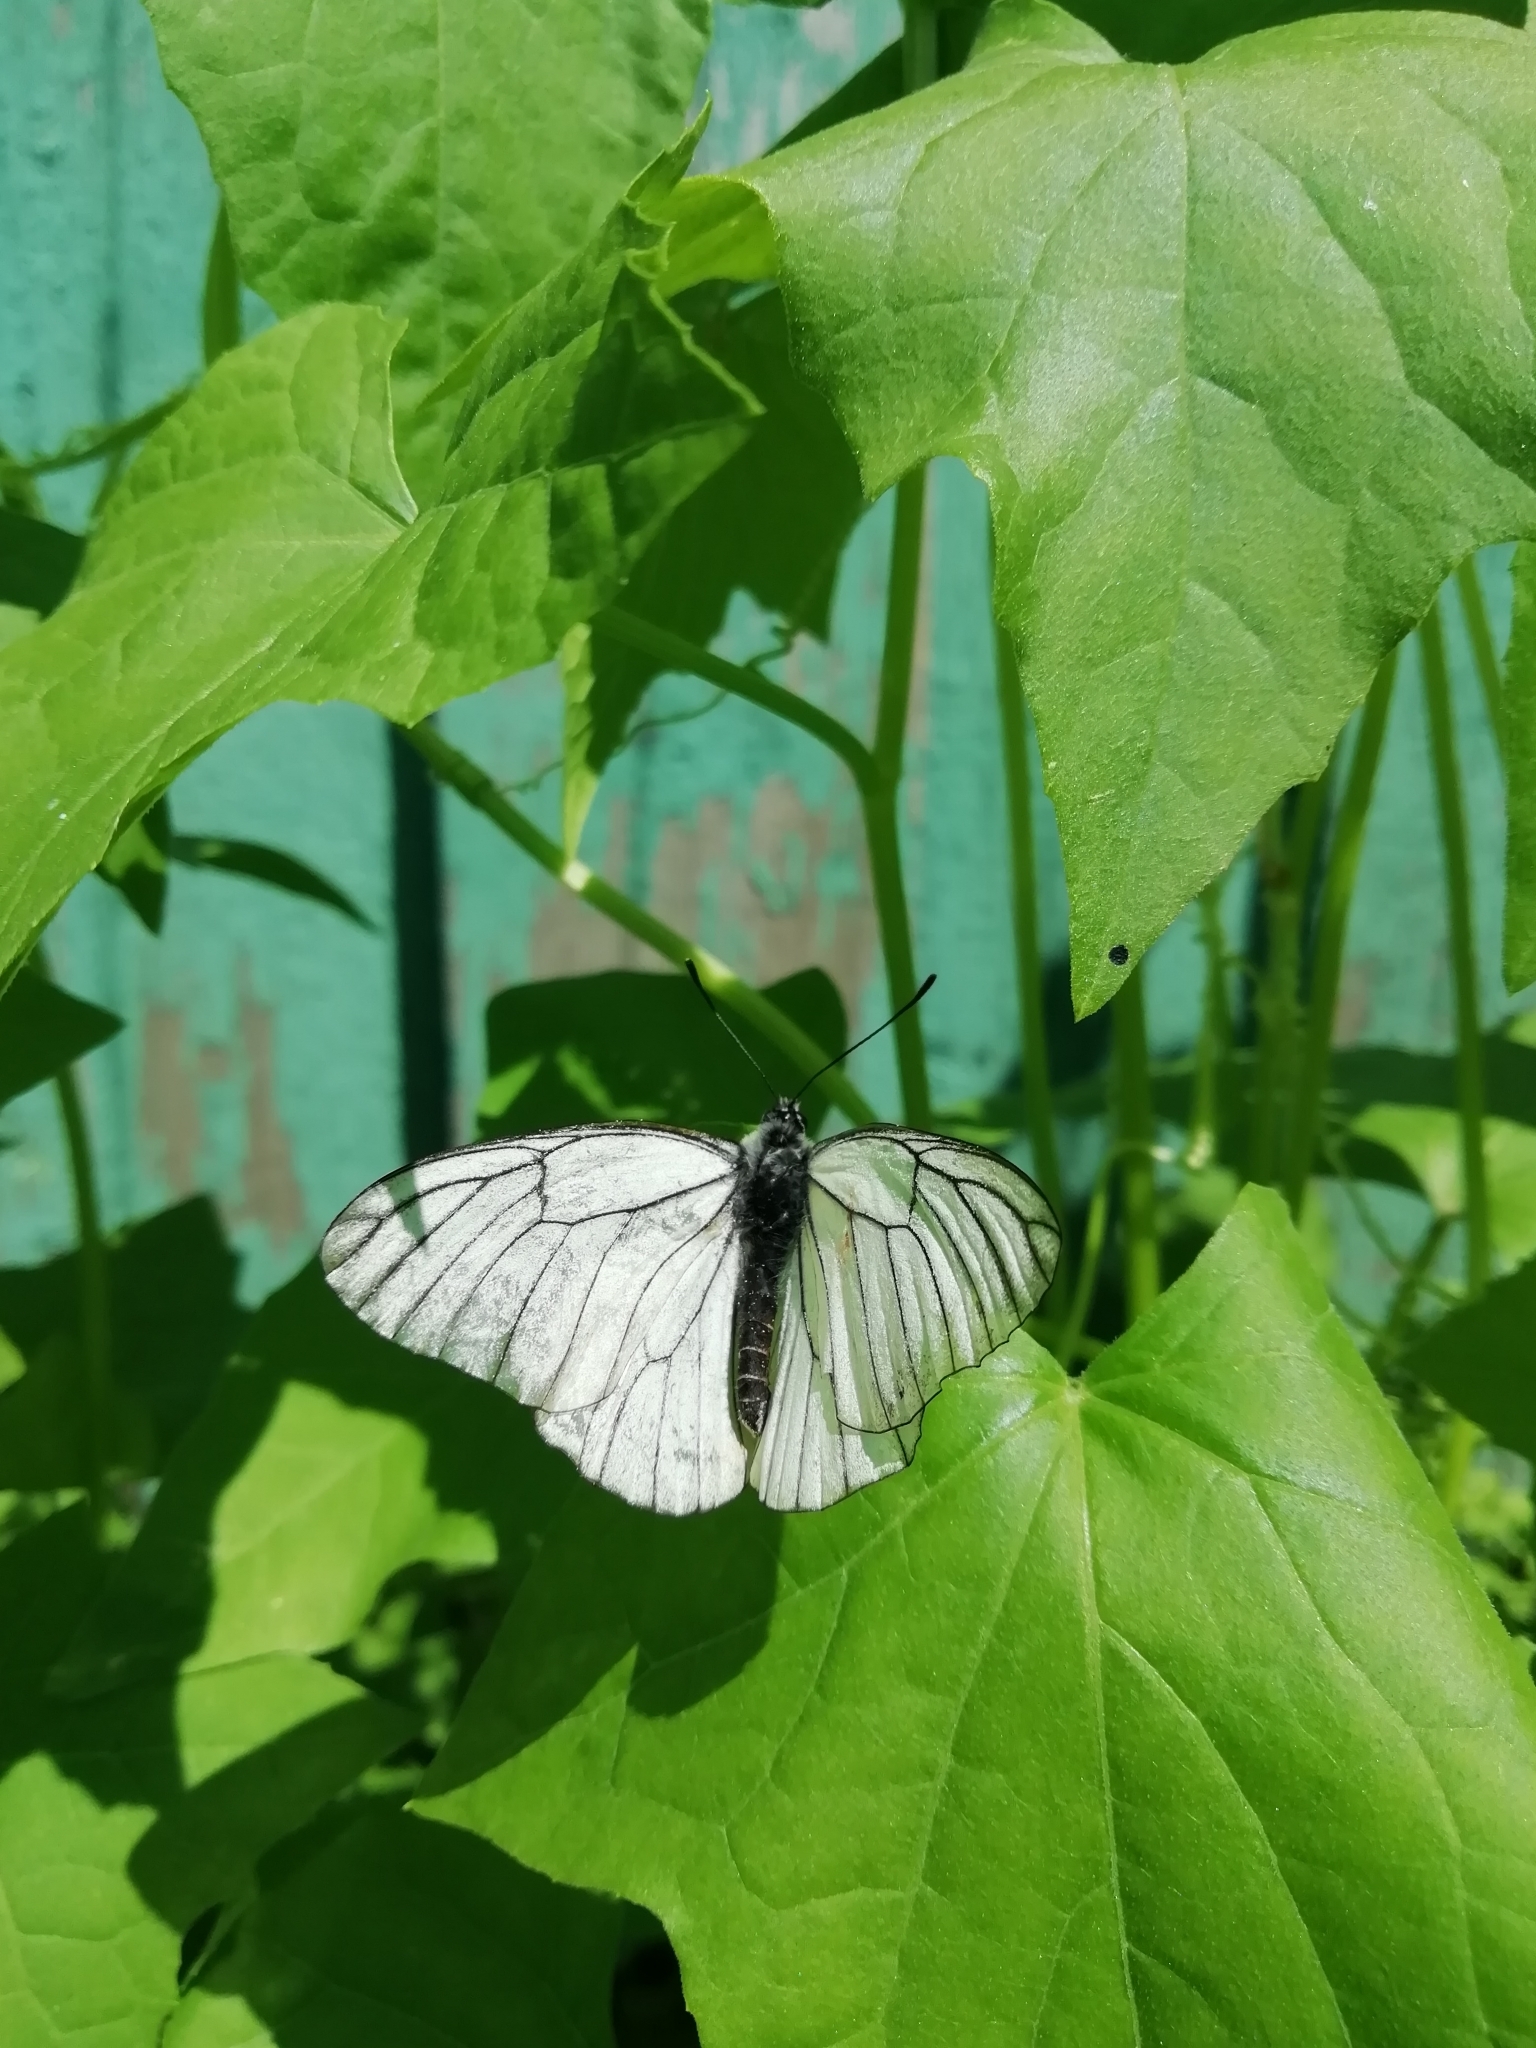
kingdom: Animalia
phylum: Arthropoda
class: Insecta
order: Lepidoptera
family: Pieridae
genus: Aporia
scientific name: Aporia crataegi
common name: Black-veined white
